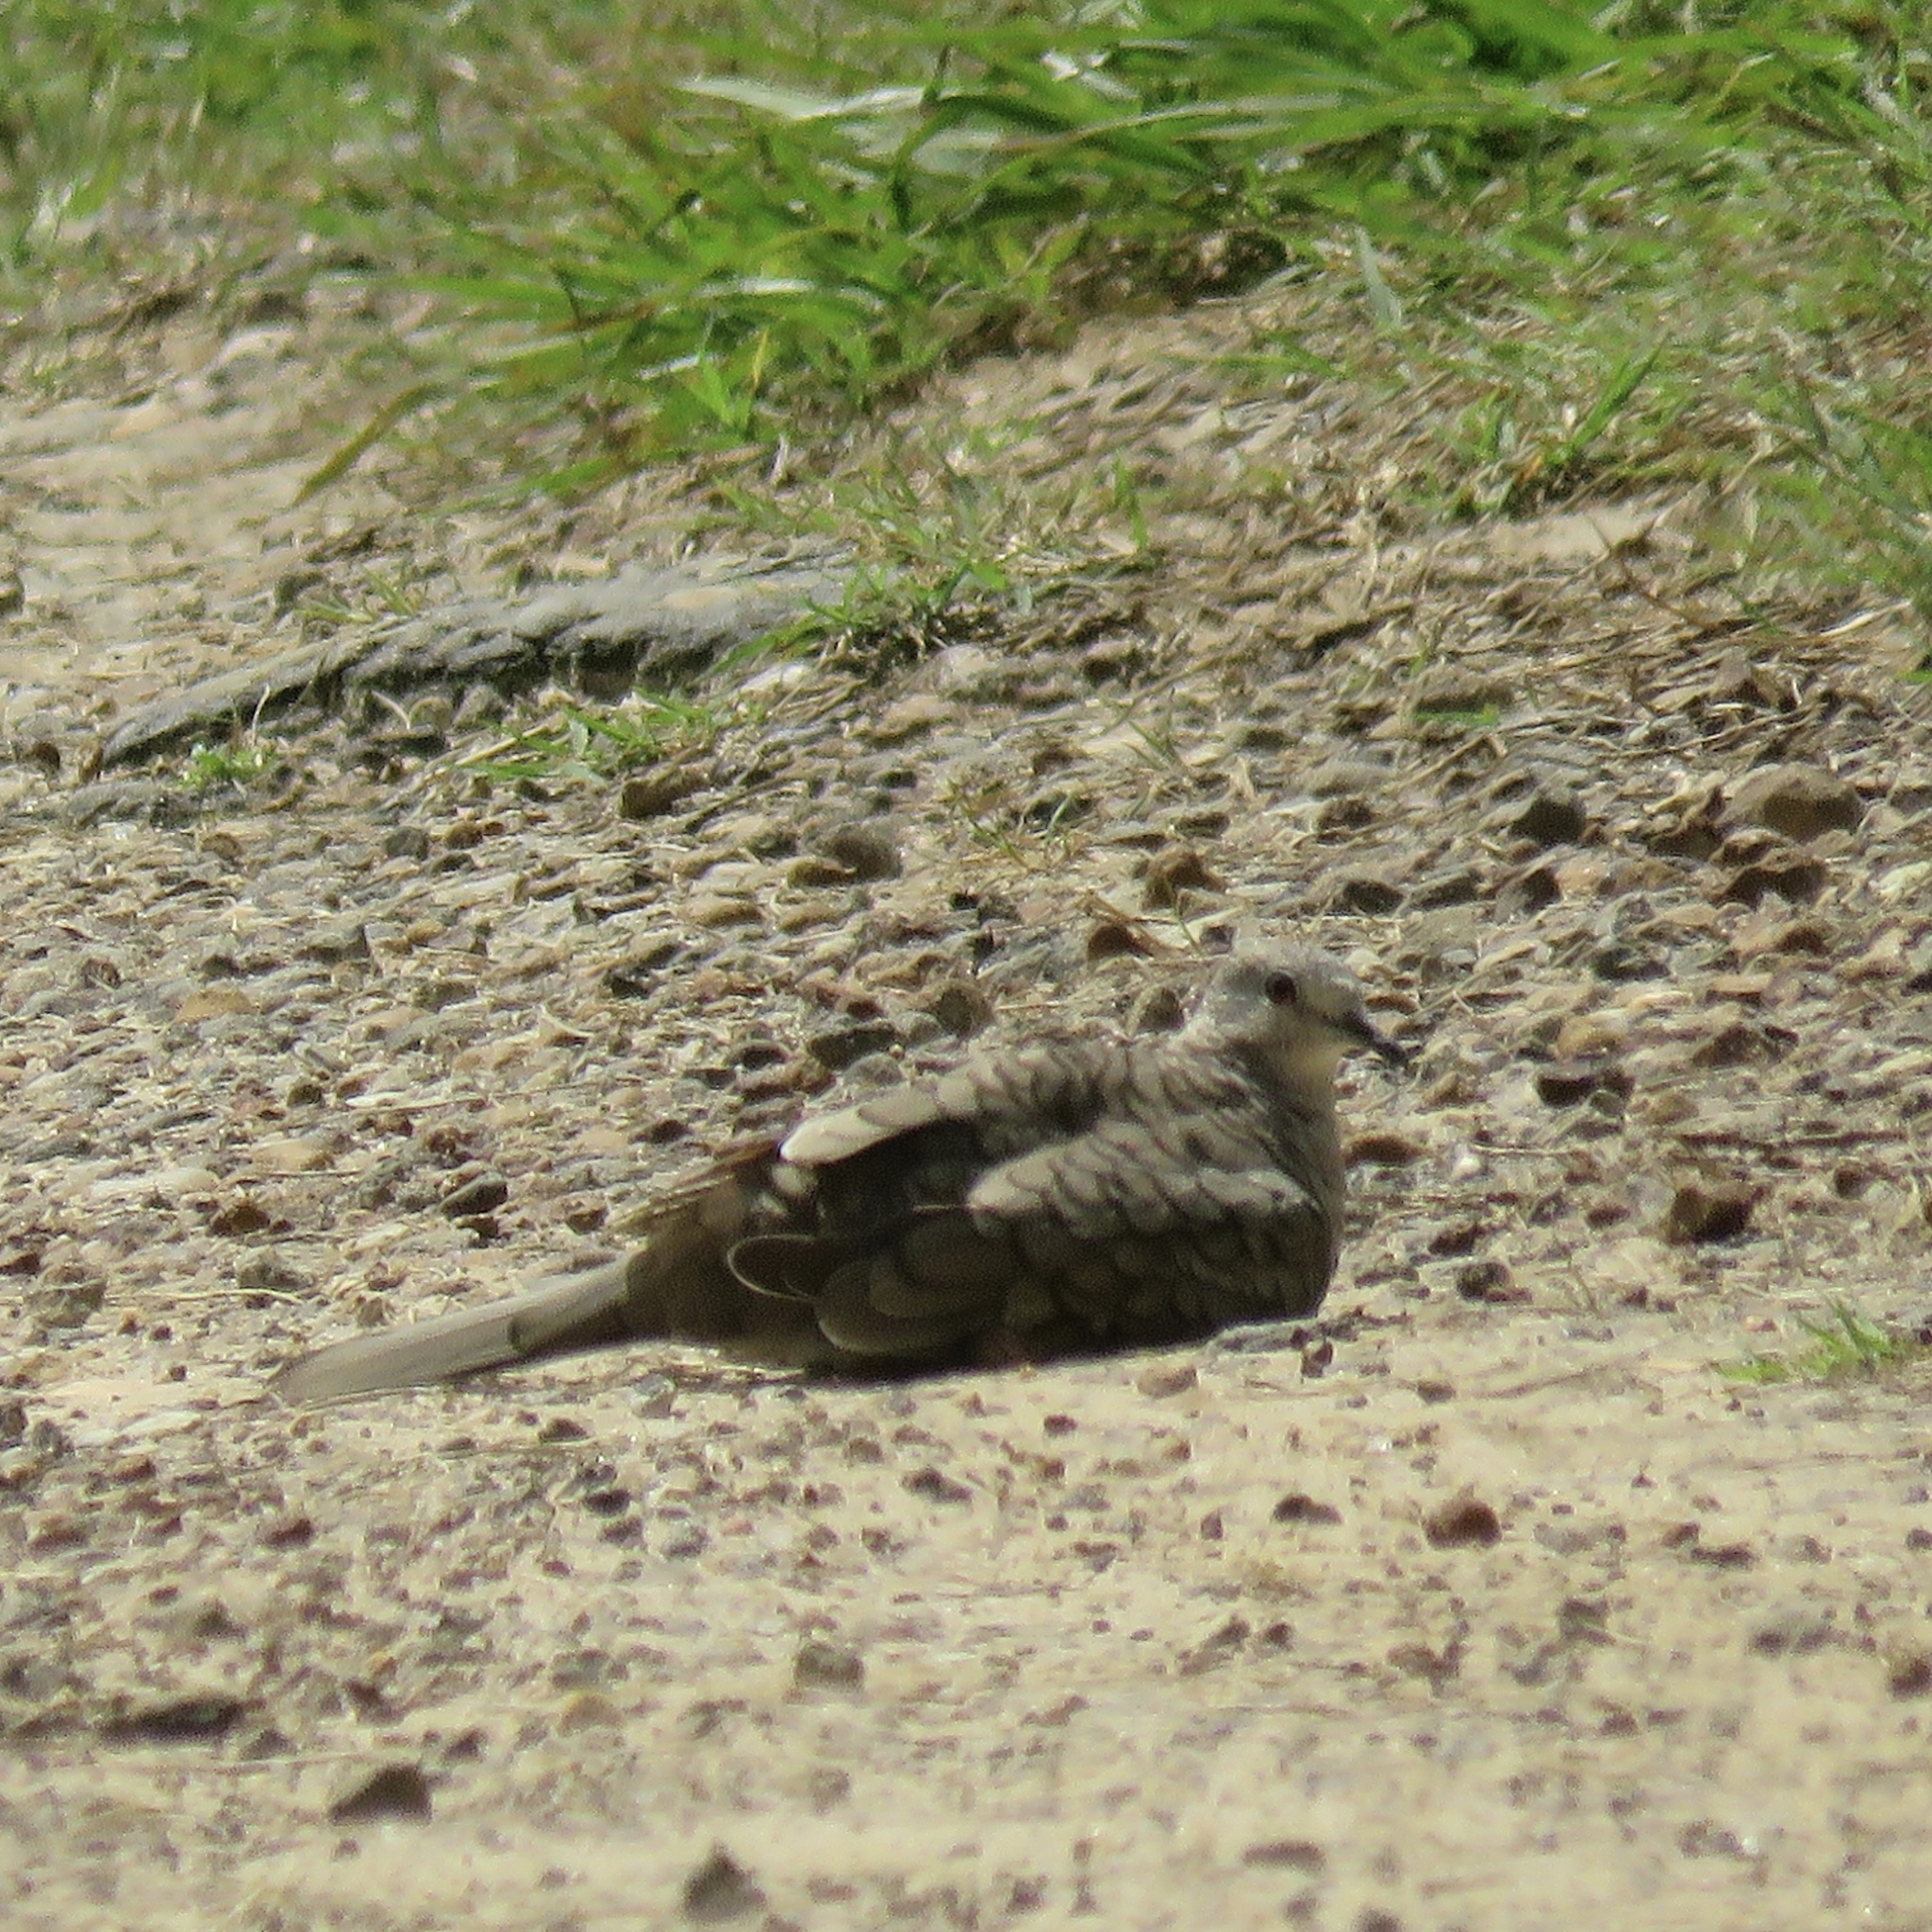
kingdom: Animalia
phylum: Chordata
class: Aves
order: Columbiformes
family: Columbidae
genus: Columbina
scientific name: Columbina inca
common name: Inca dove
